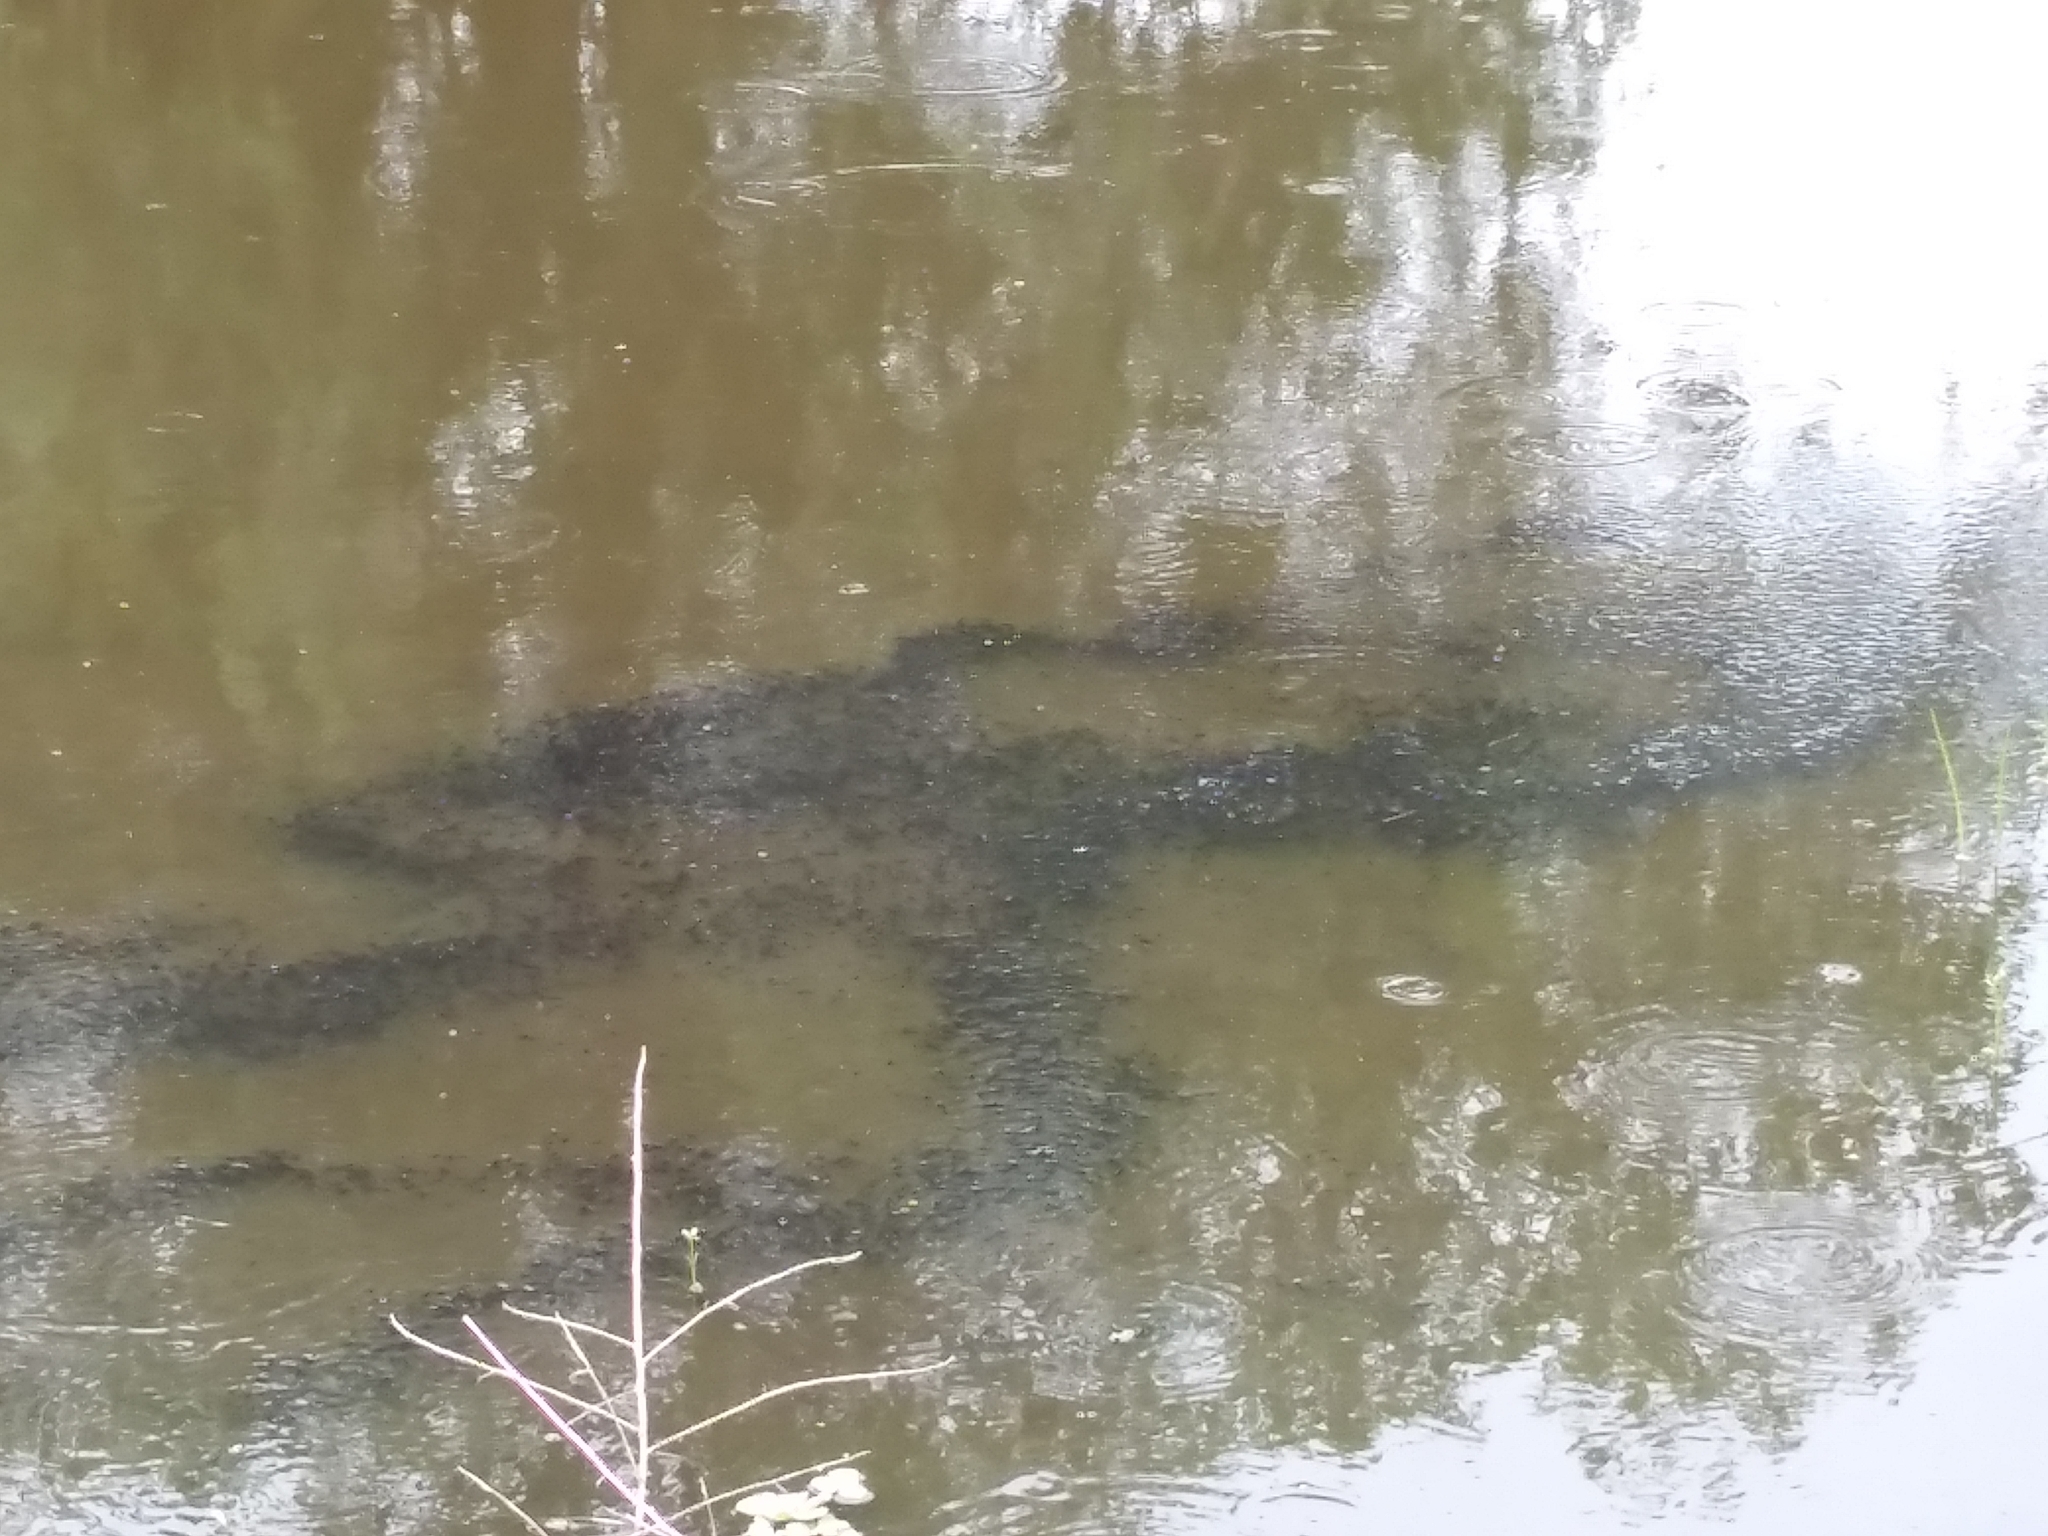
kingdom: Animalia
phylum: Chordata
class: Amphibia
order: Anura
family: Bufonidae
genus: Rhinella
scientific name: Rhinella marina
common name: Cane toad
